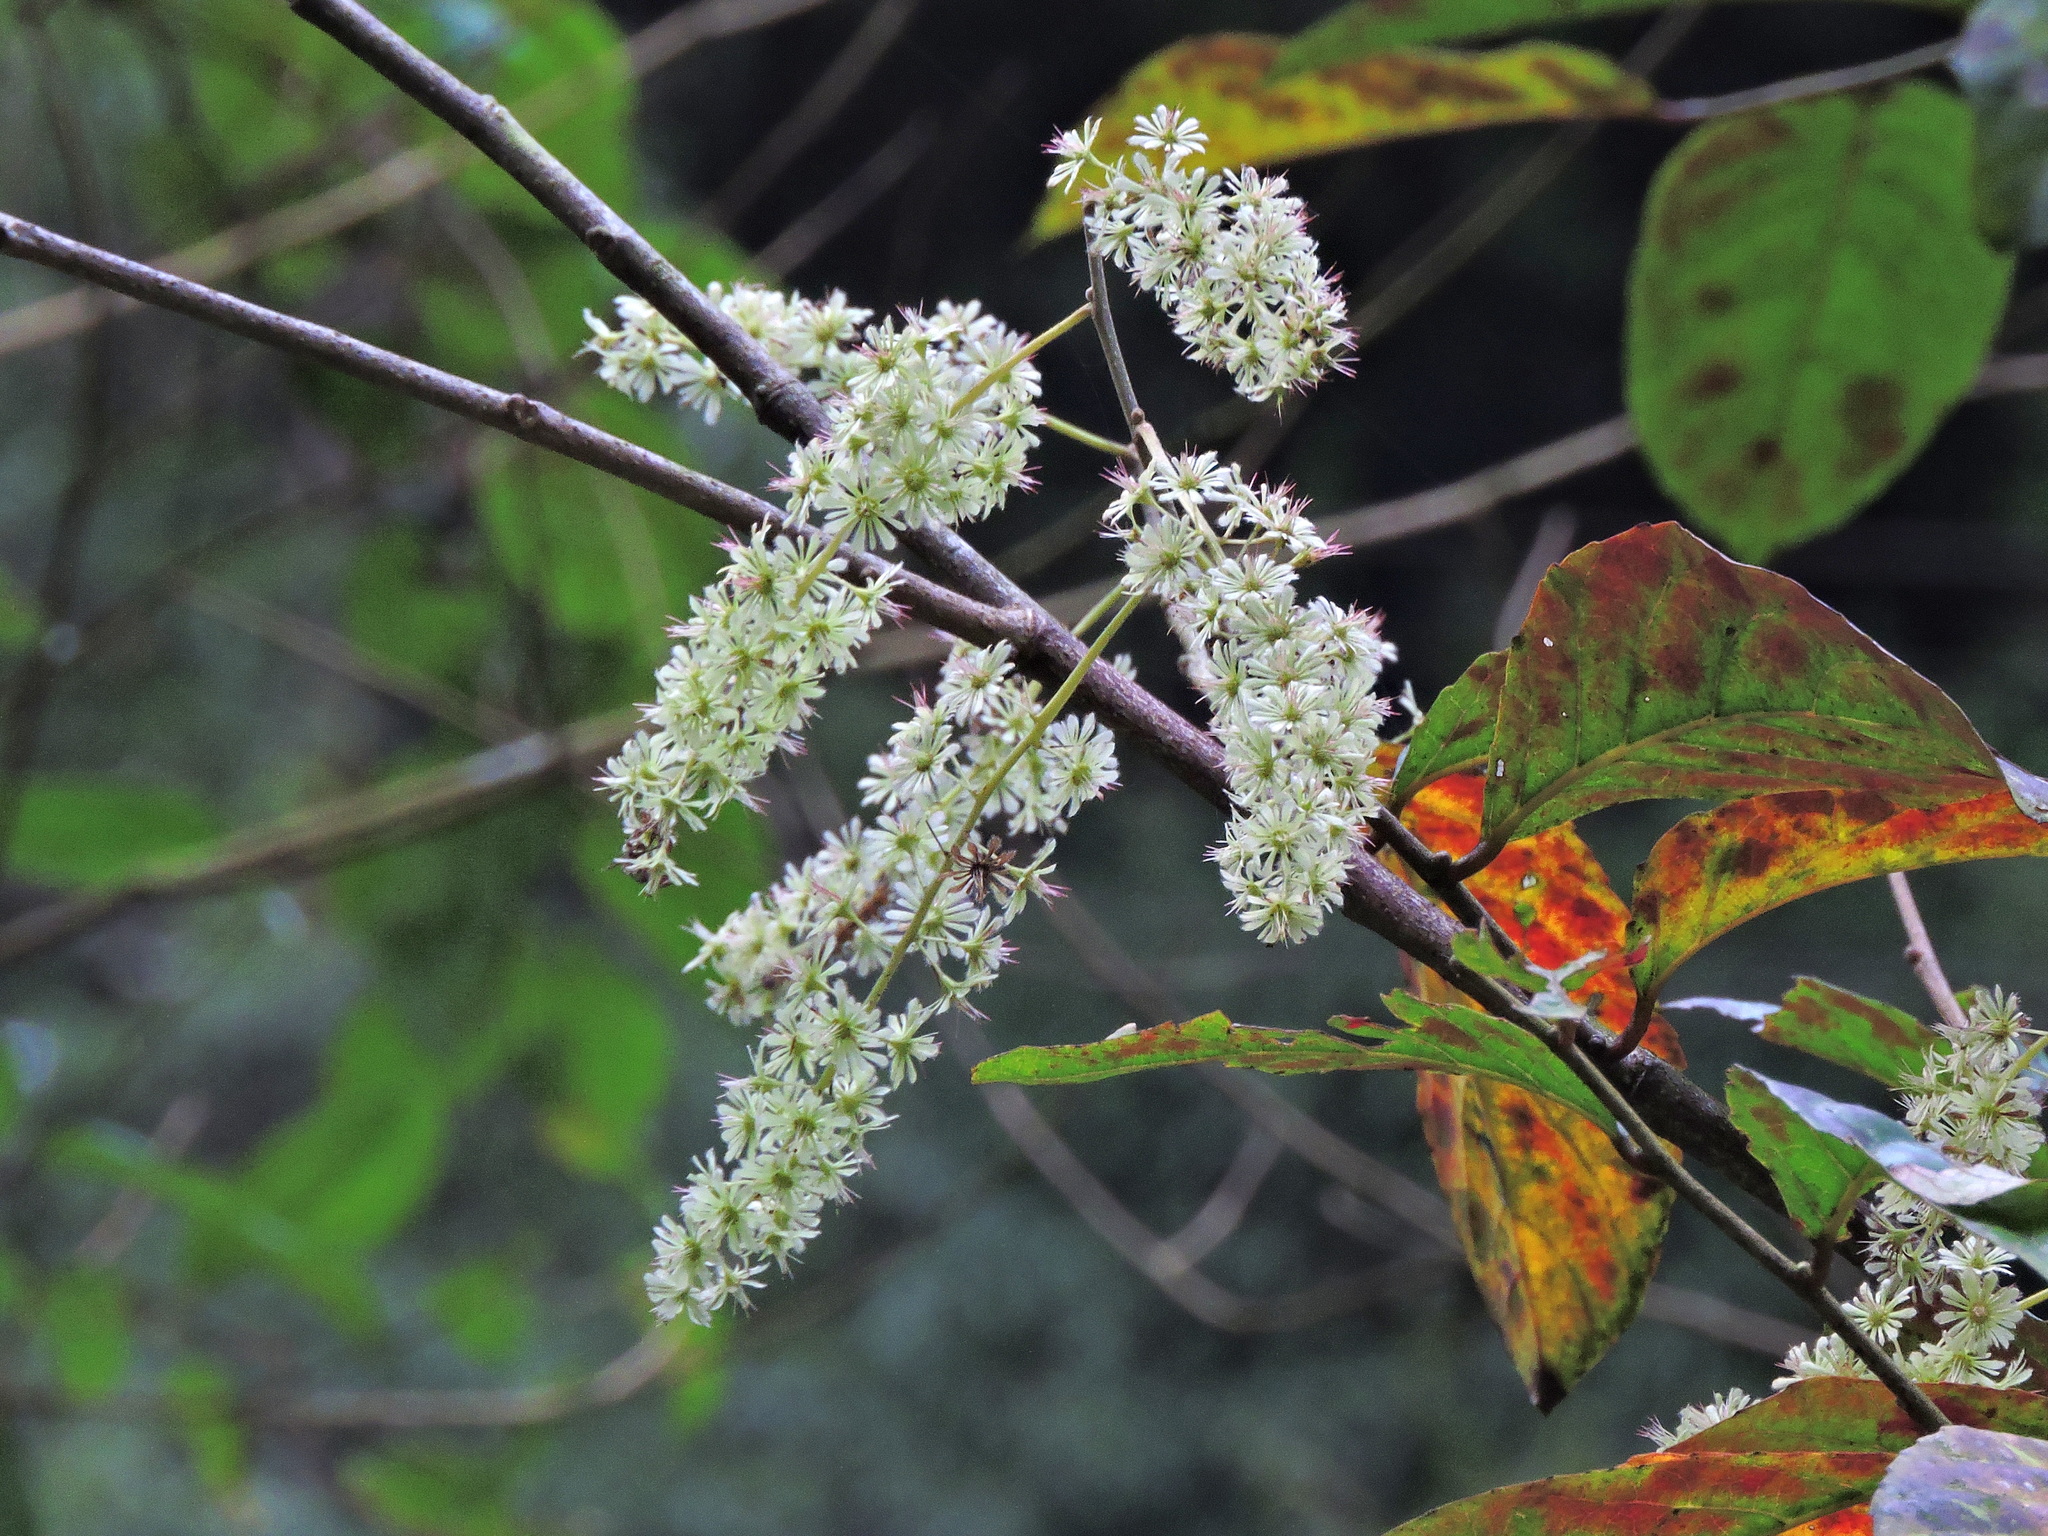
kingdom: Plantae
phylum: Tracheophyta
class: Magnoliopsida
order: Malpighiales
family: Salicaceae
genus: Homalium
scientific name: Homalium cochinchinensis
